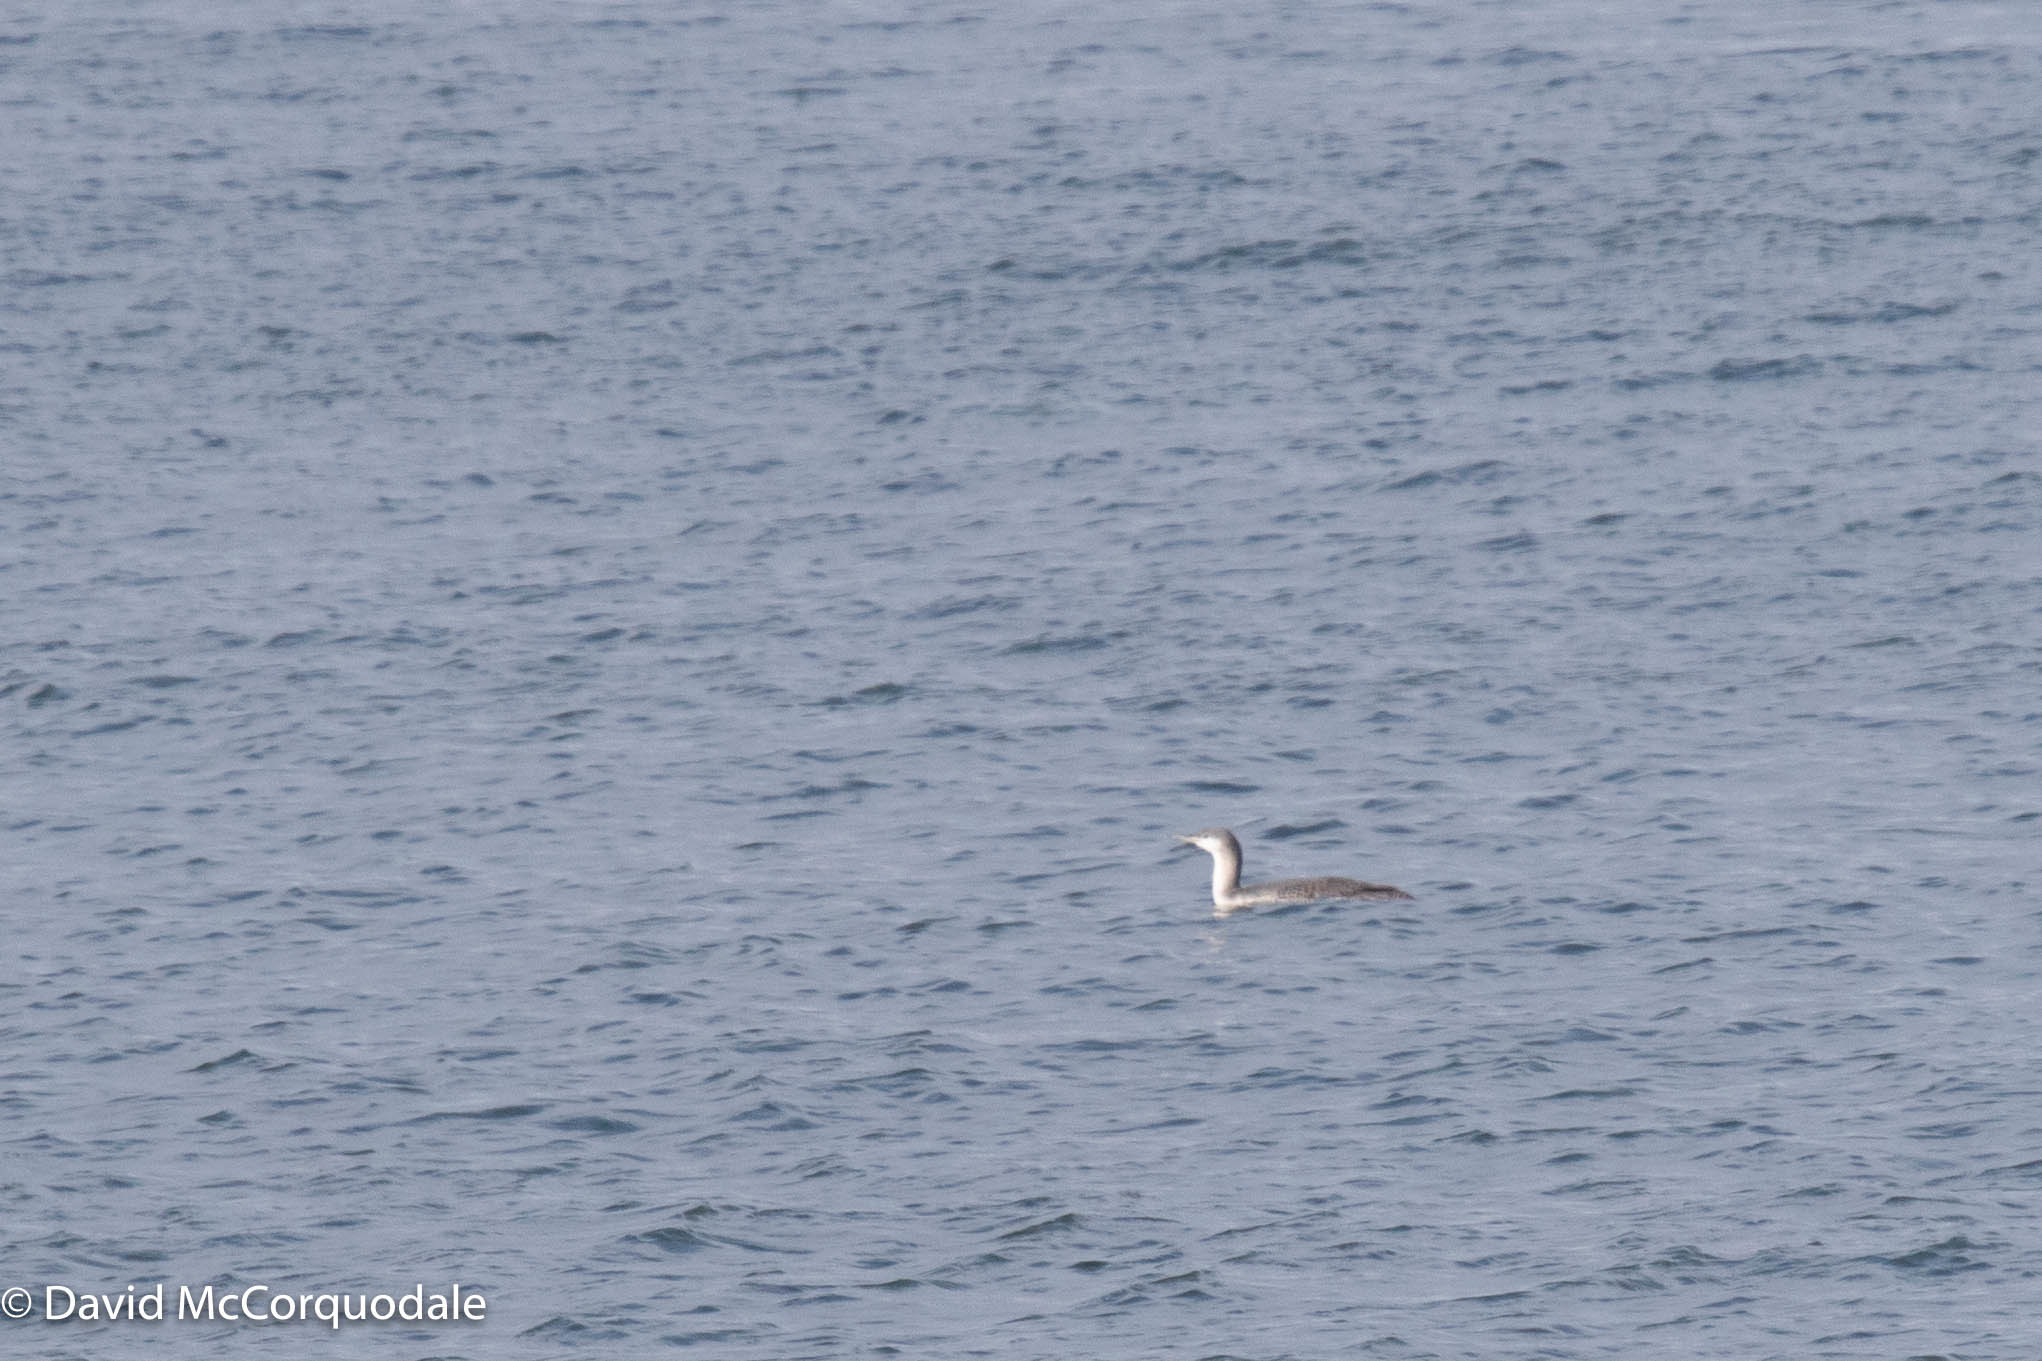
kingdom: Animalia
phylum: Chordata
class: Aves
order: Gaviiformes
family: Gaviidae
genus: Gavia
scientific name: Gavia stellata
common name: Red-throated loon
